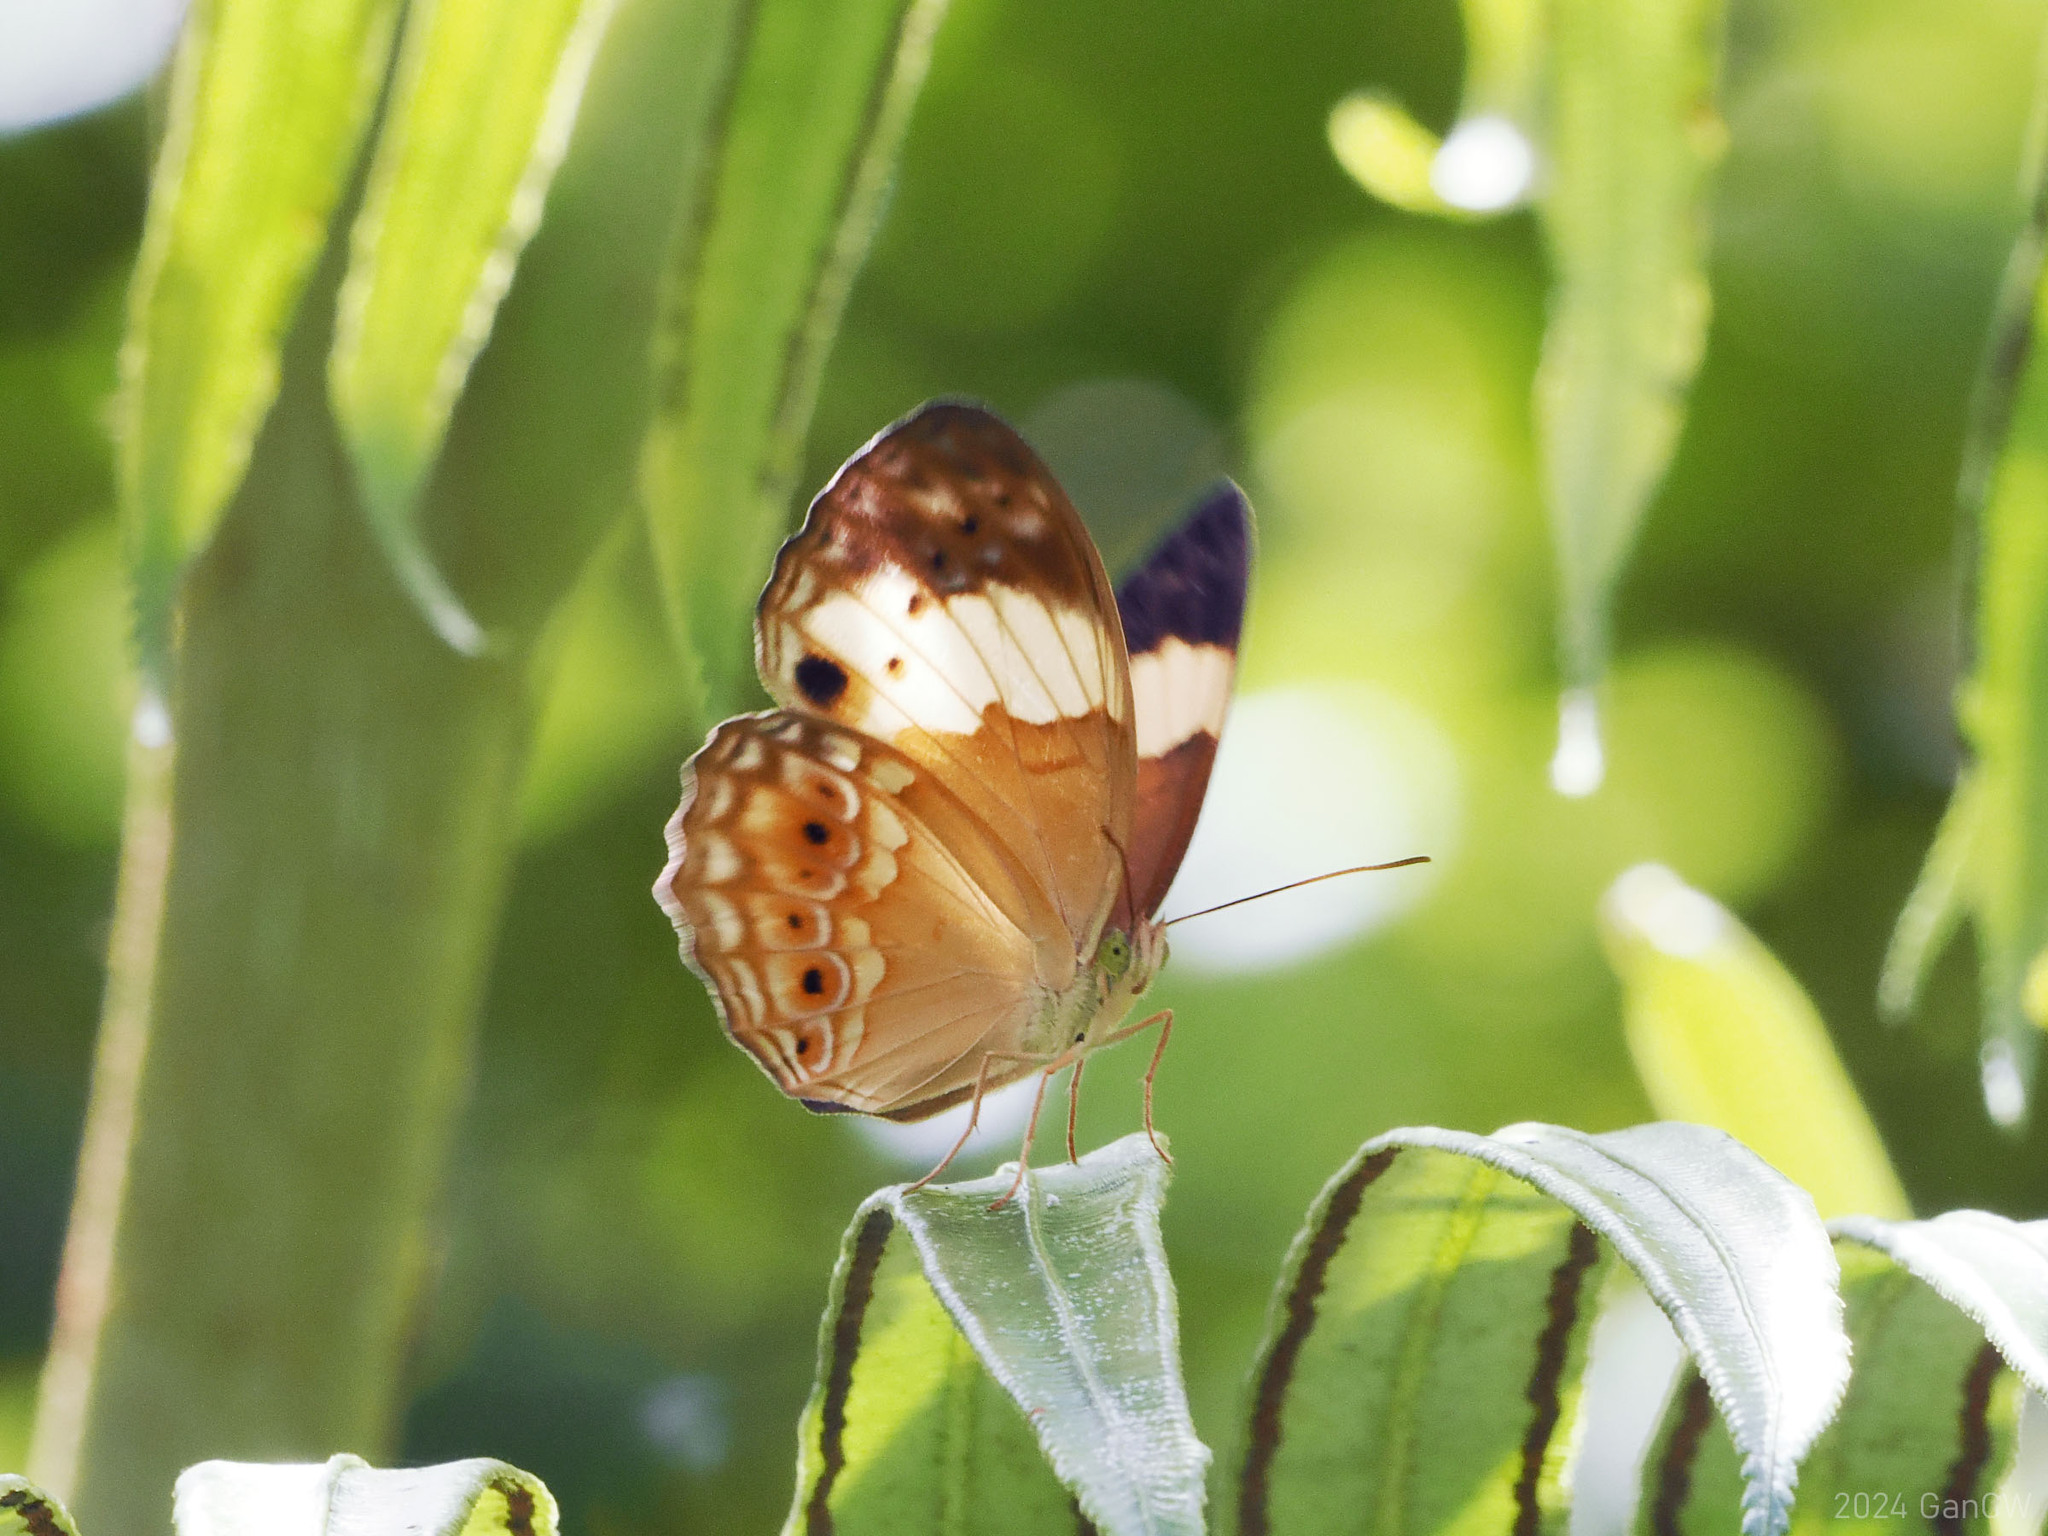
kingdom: Animalia
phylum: Arthropoda
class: Insecta
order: Lepidoptera
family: Nymphalidae
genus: Cupha
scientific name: Cupha arias
